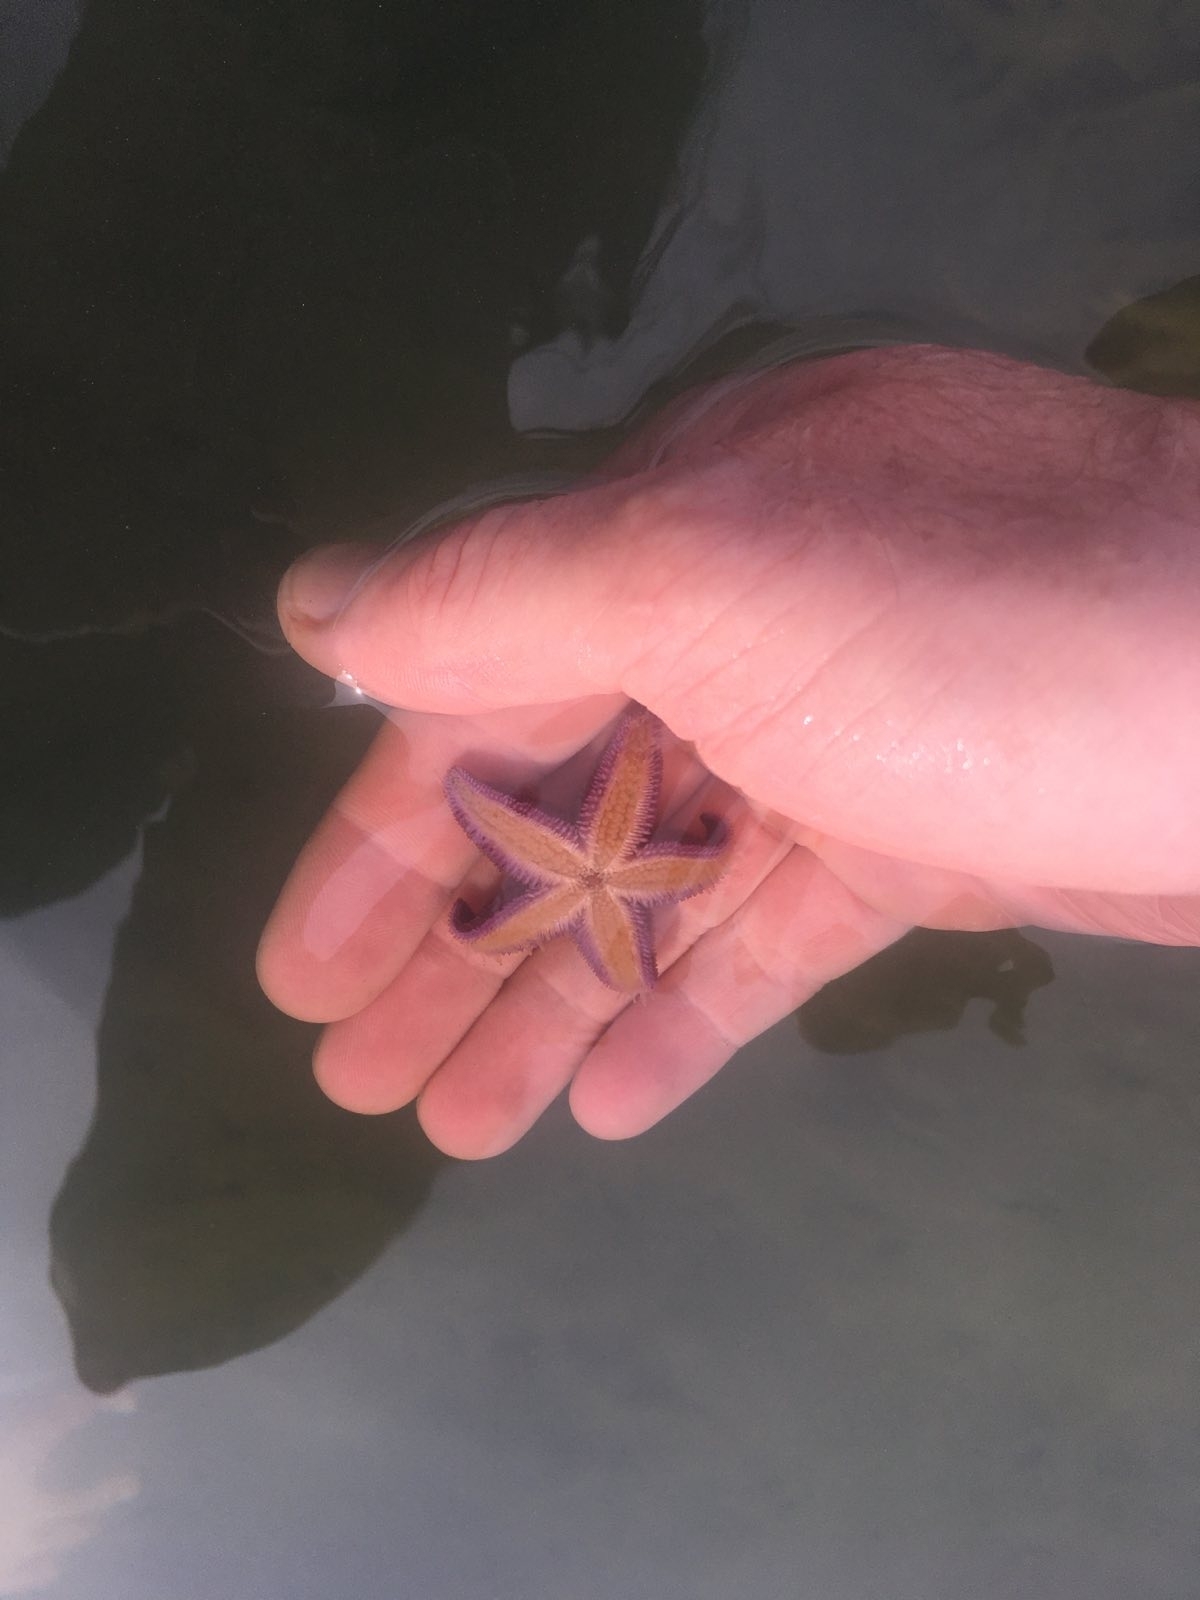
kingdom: Animalia
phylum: Echinodermata
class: Asteroidea
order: Forcipulatida
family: Asteriidae
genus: Asterias
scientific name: Asterias rubens
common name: Common starfish
